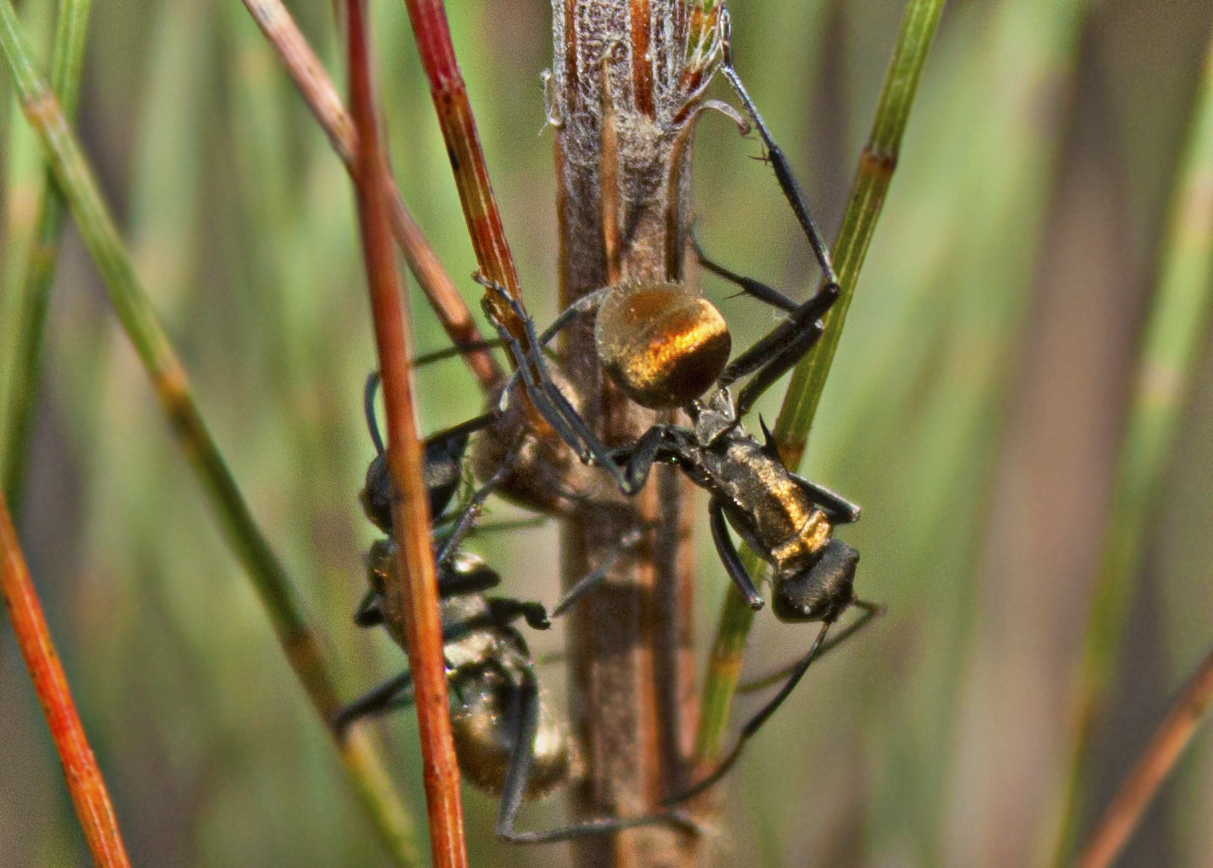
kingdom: Animalia
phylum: Arthropoda
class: Insecta
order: Hymenoptera
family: Formicidae
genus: Polyrhachis
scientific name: Polyrhachis ammon
